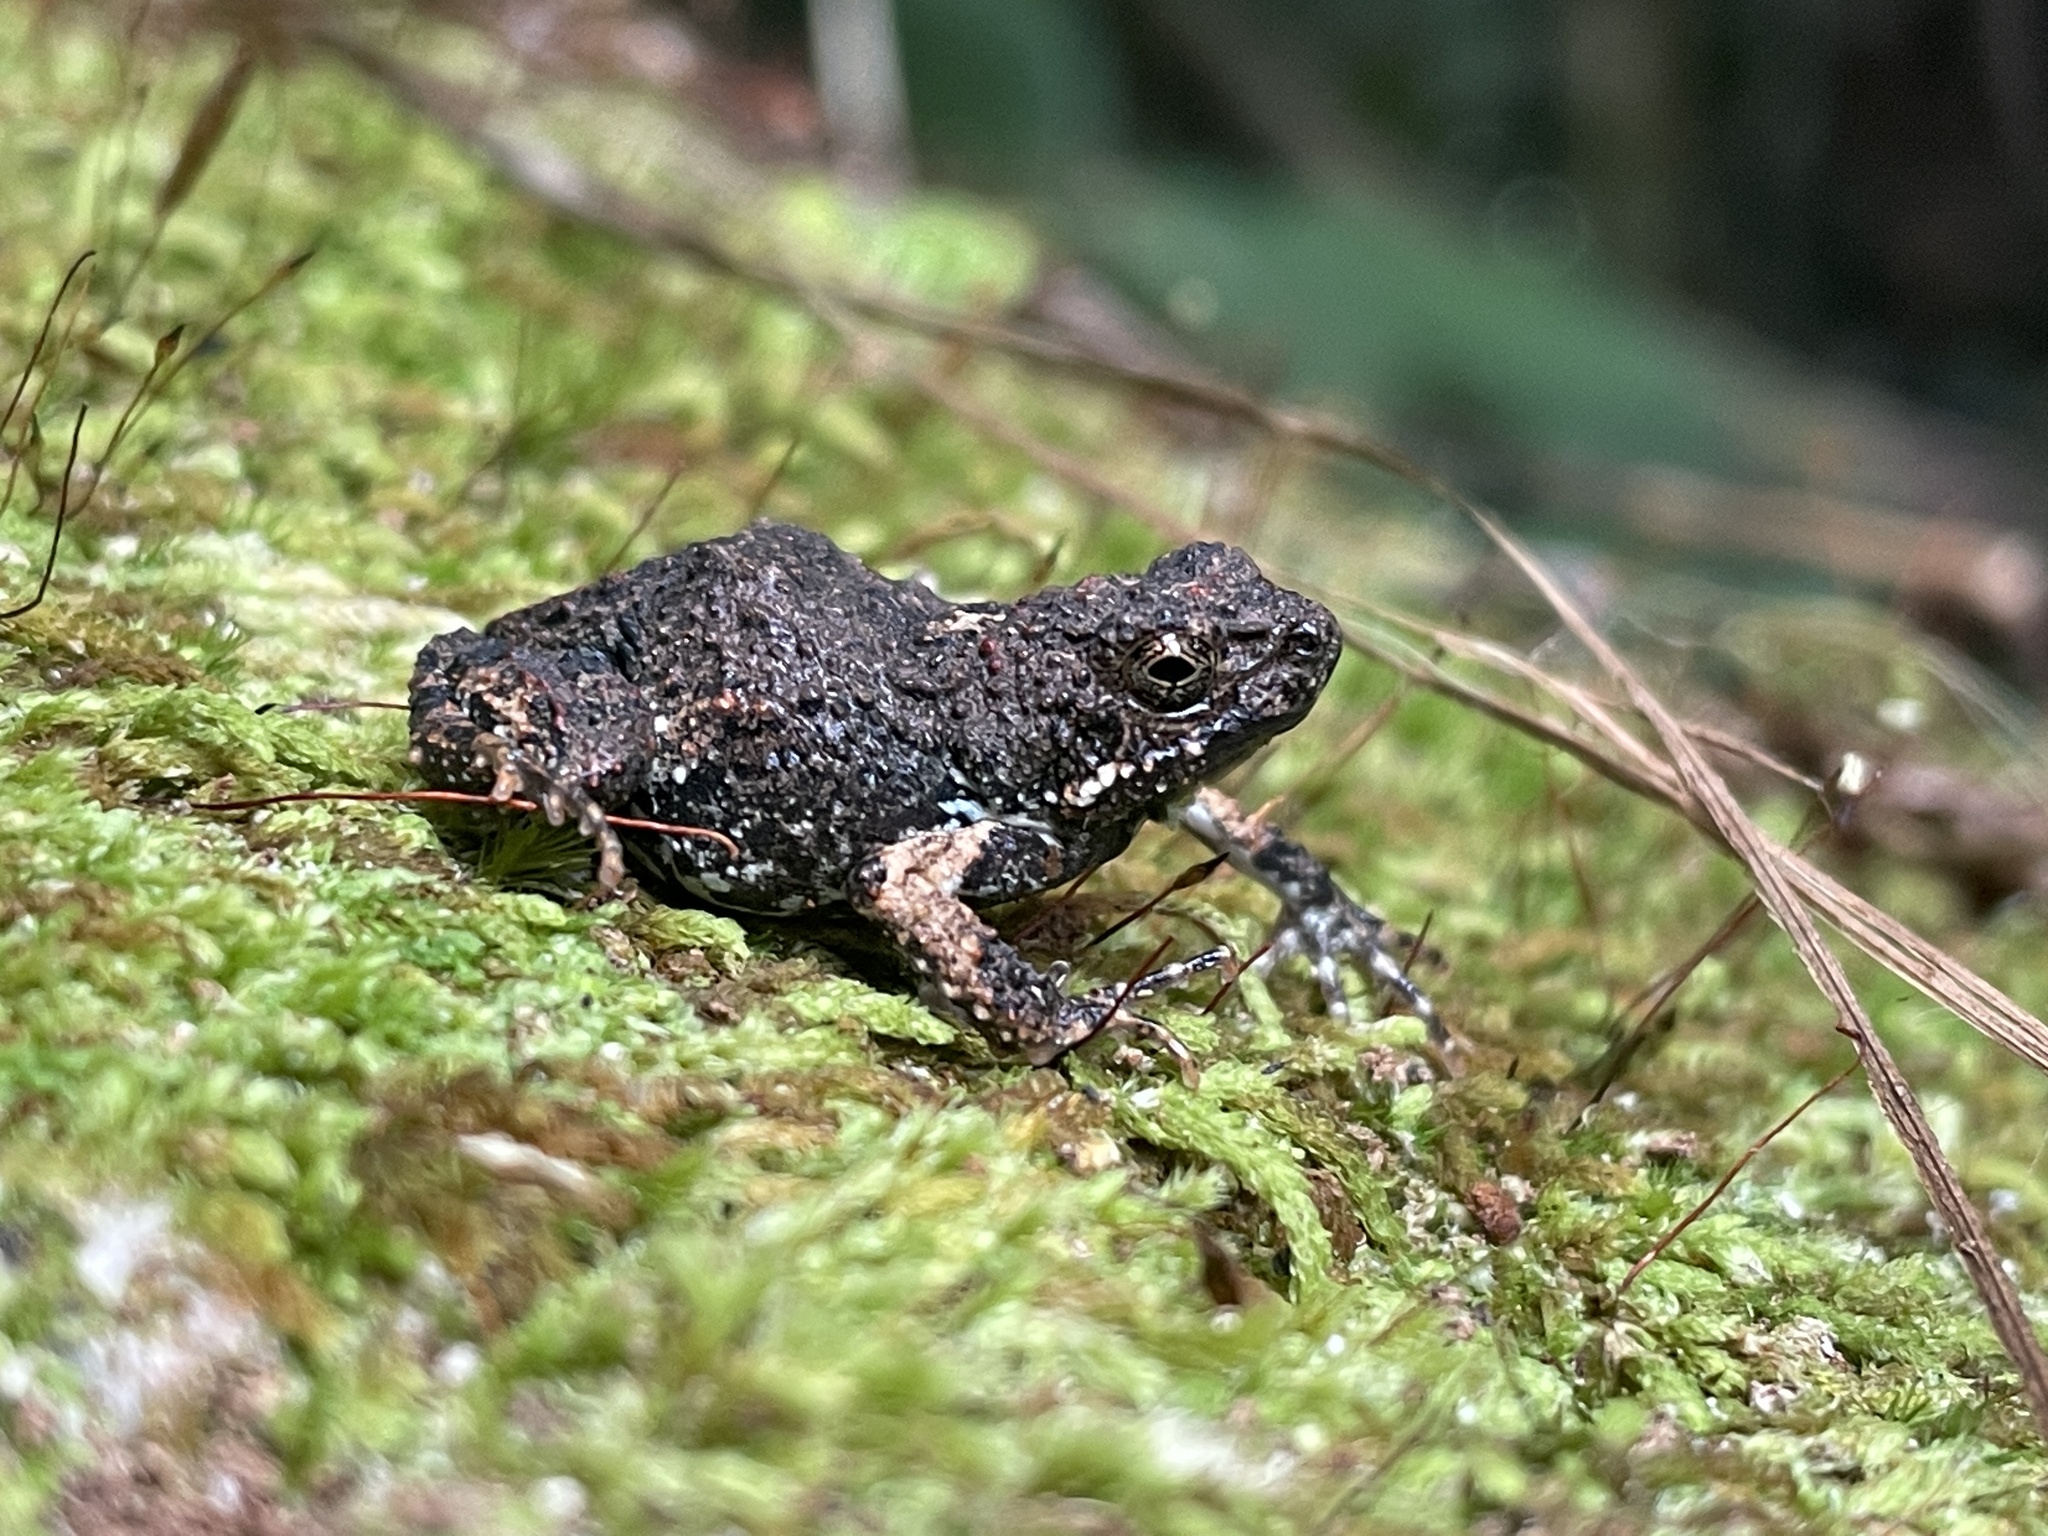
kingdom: Animalia
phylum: Chordata
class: Amphibia
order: Anura
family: Leptodactylidae
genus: Engystomops
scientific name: Engystomops pustulosus
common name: Tungara frog
